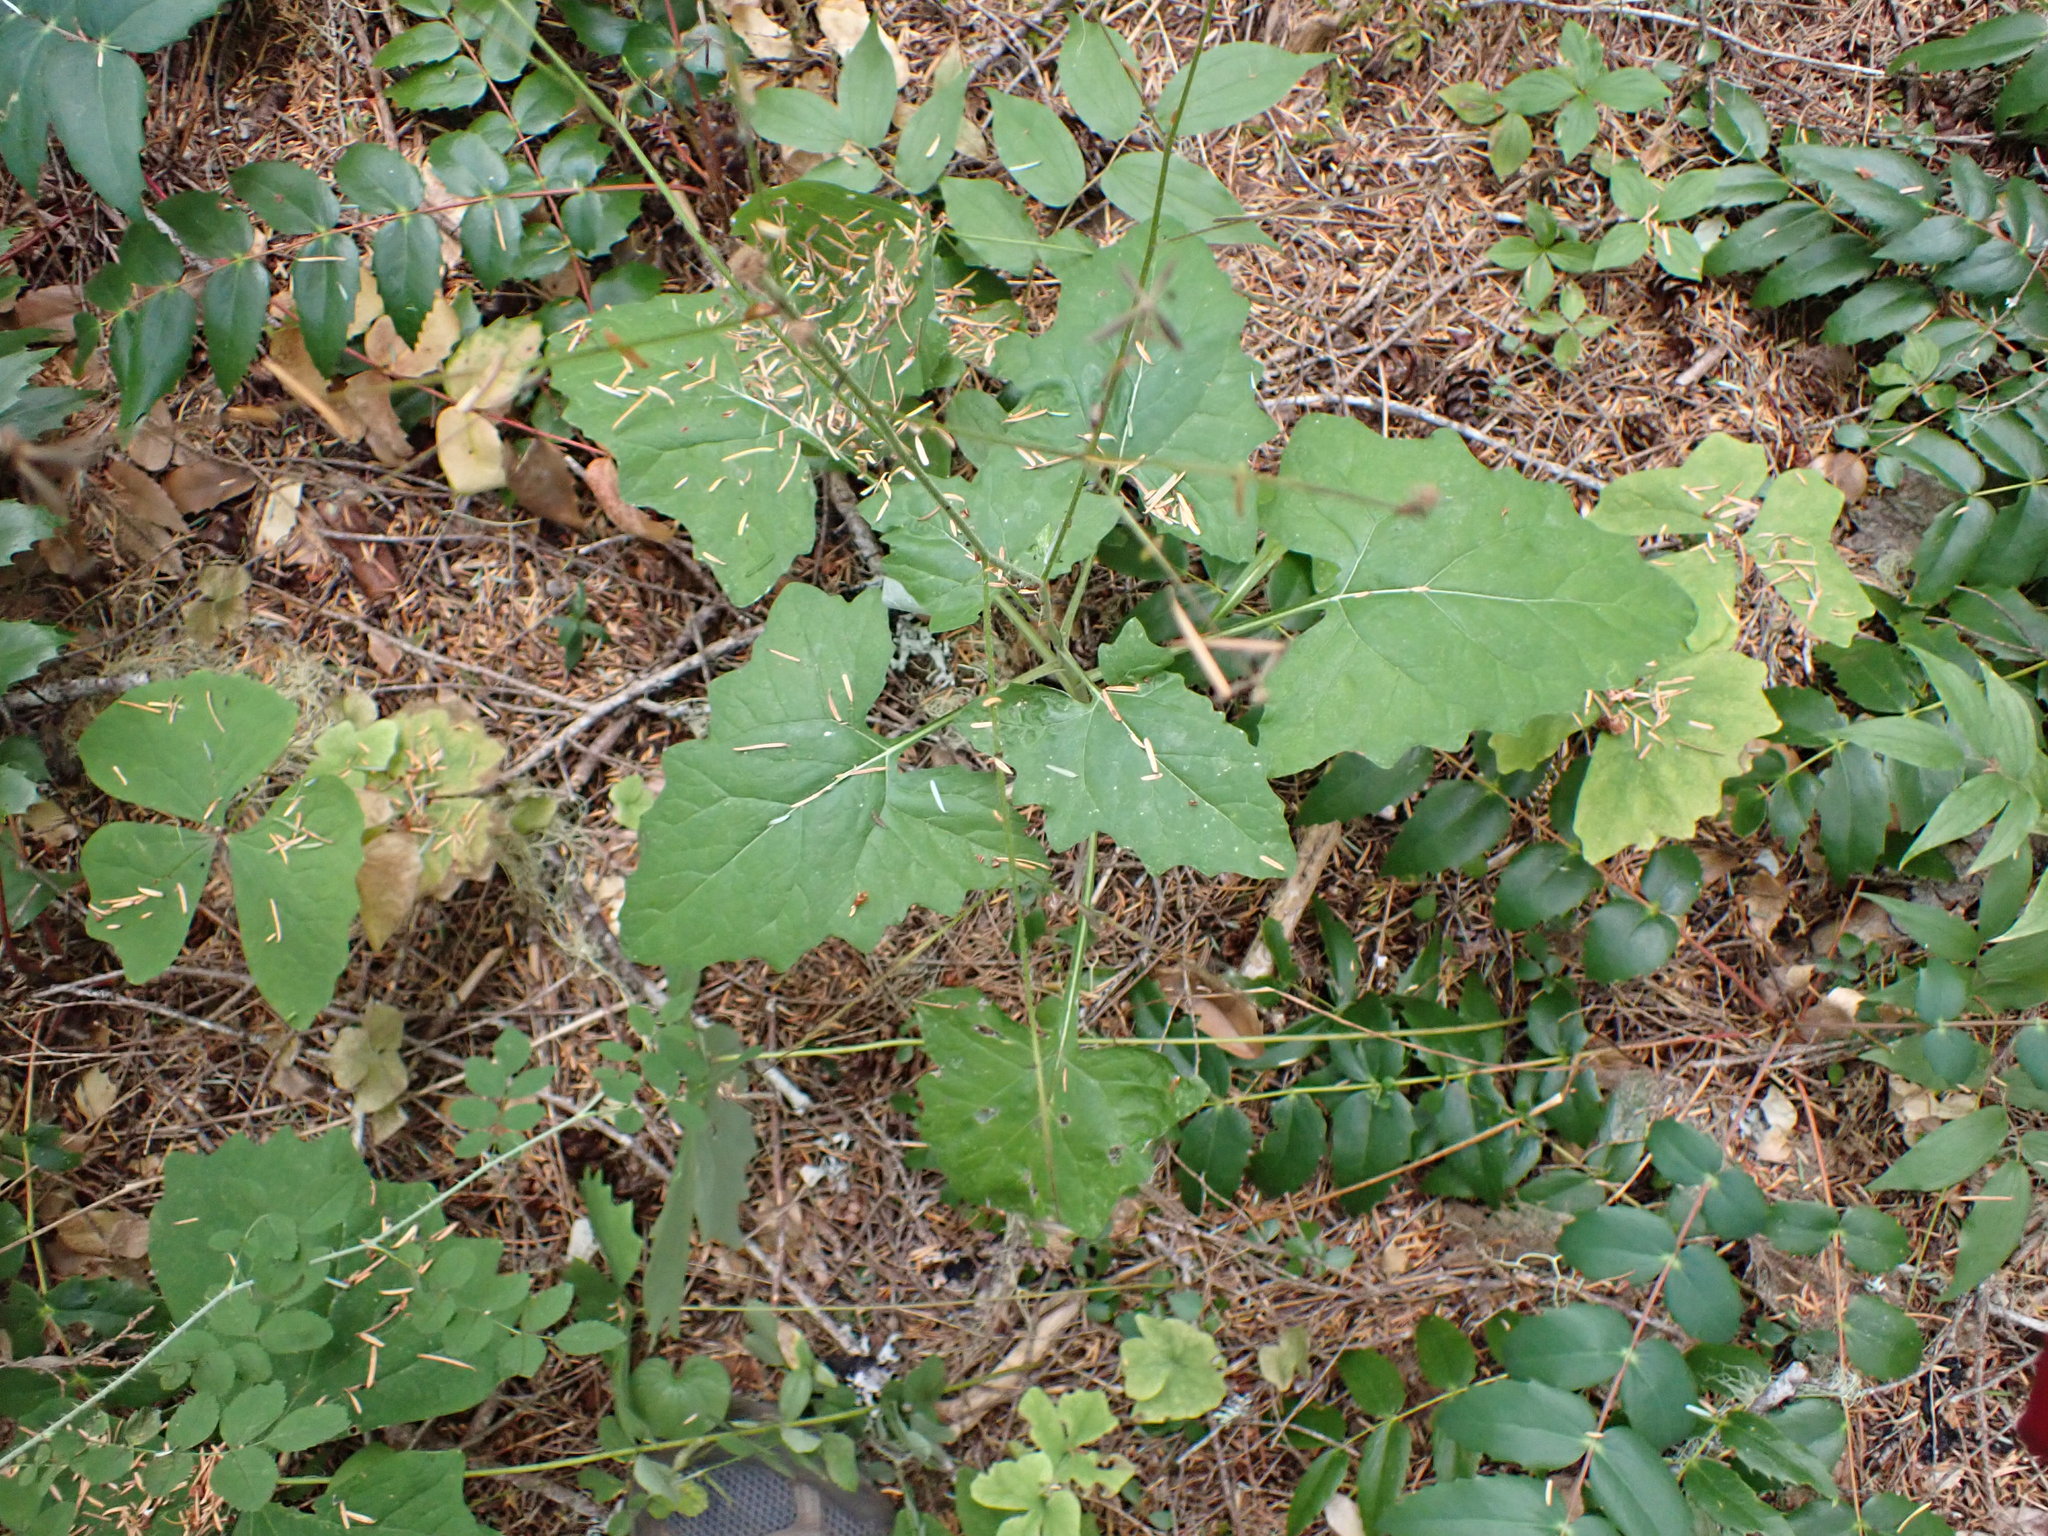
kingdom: Plantae
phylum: Tracheophyta
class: Magnoliopsida
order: Asterales
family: Asteraceae
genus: Adenocaulon
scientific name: Adenocaulon bicolor
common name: Trailplant
